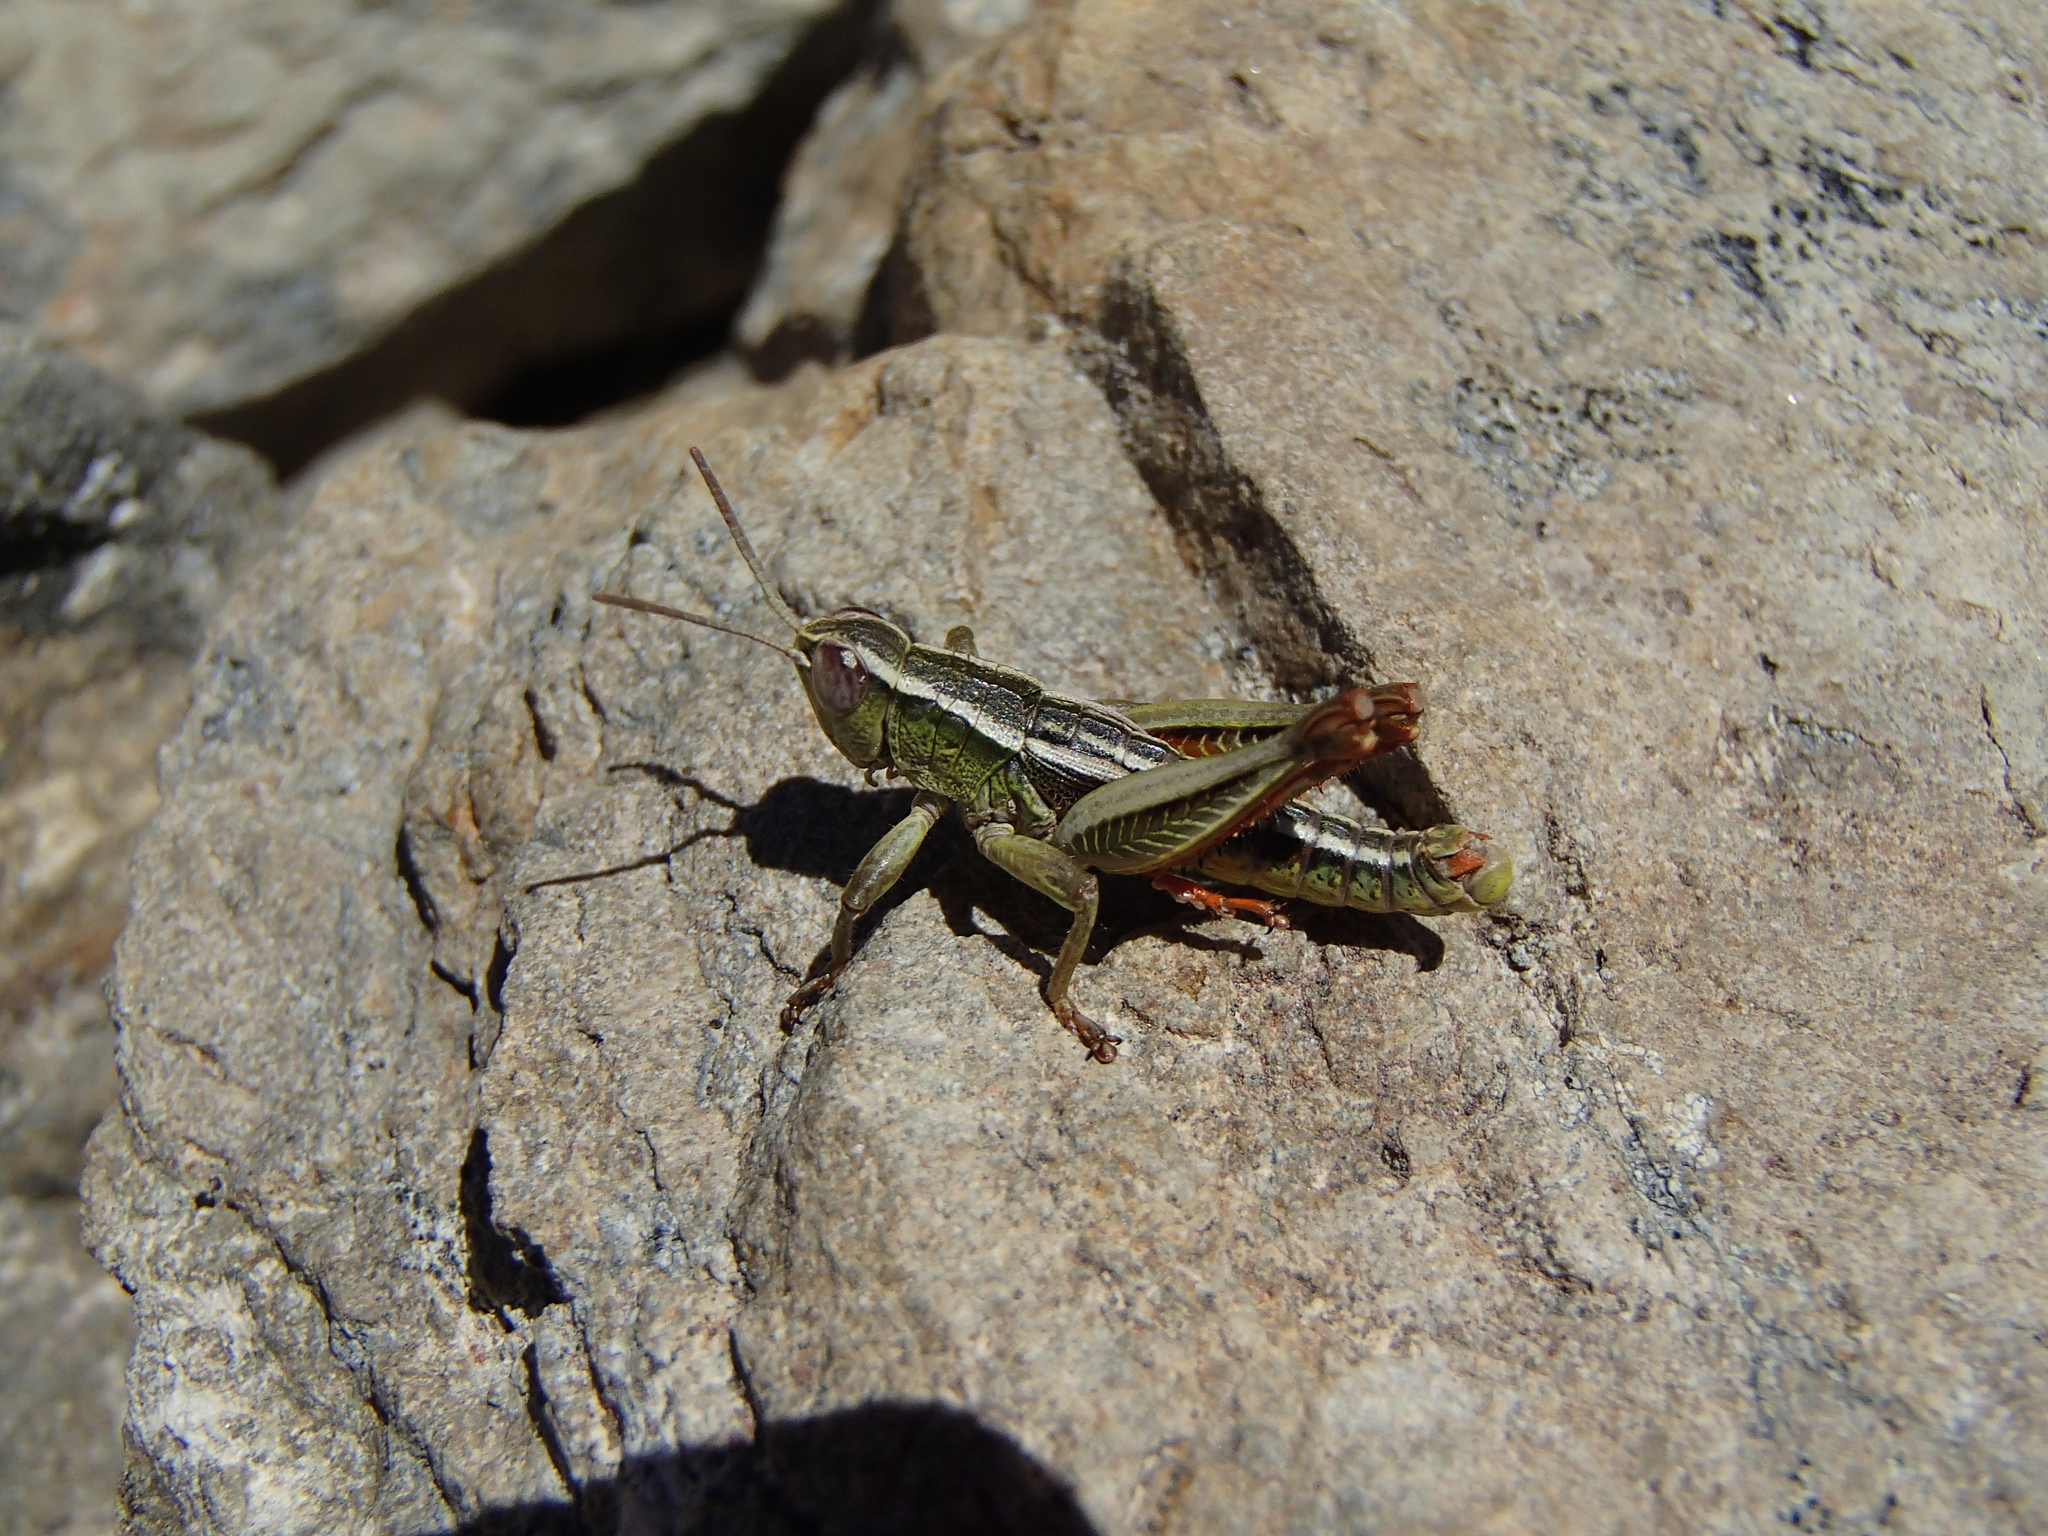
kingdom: Animalia
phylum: Arthropoda
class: Insecta
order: Orthoptera
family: Acrididae
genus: Sigaus
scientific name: Sigaus
